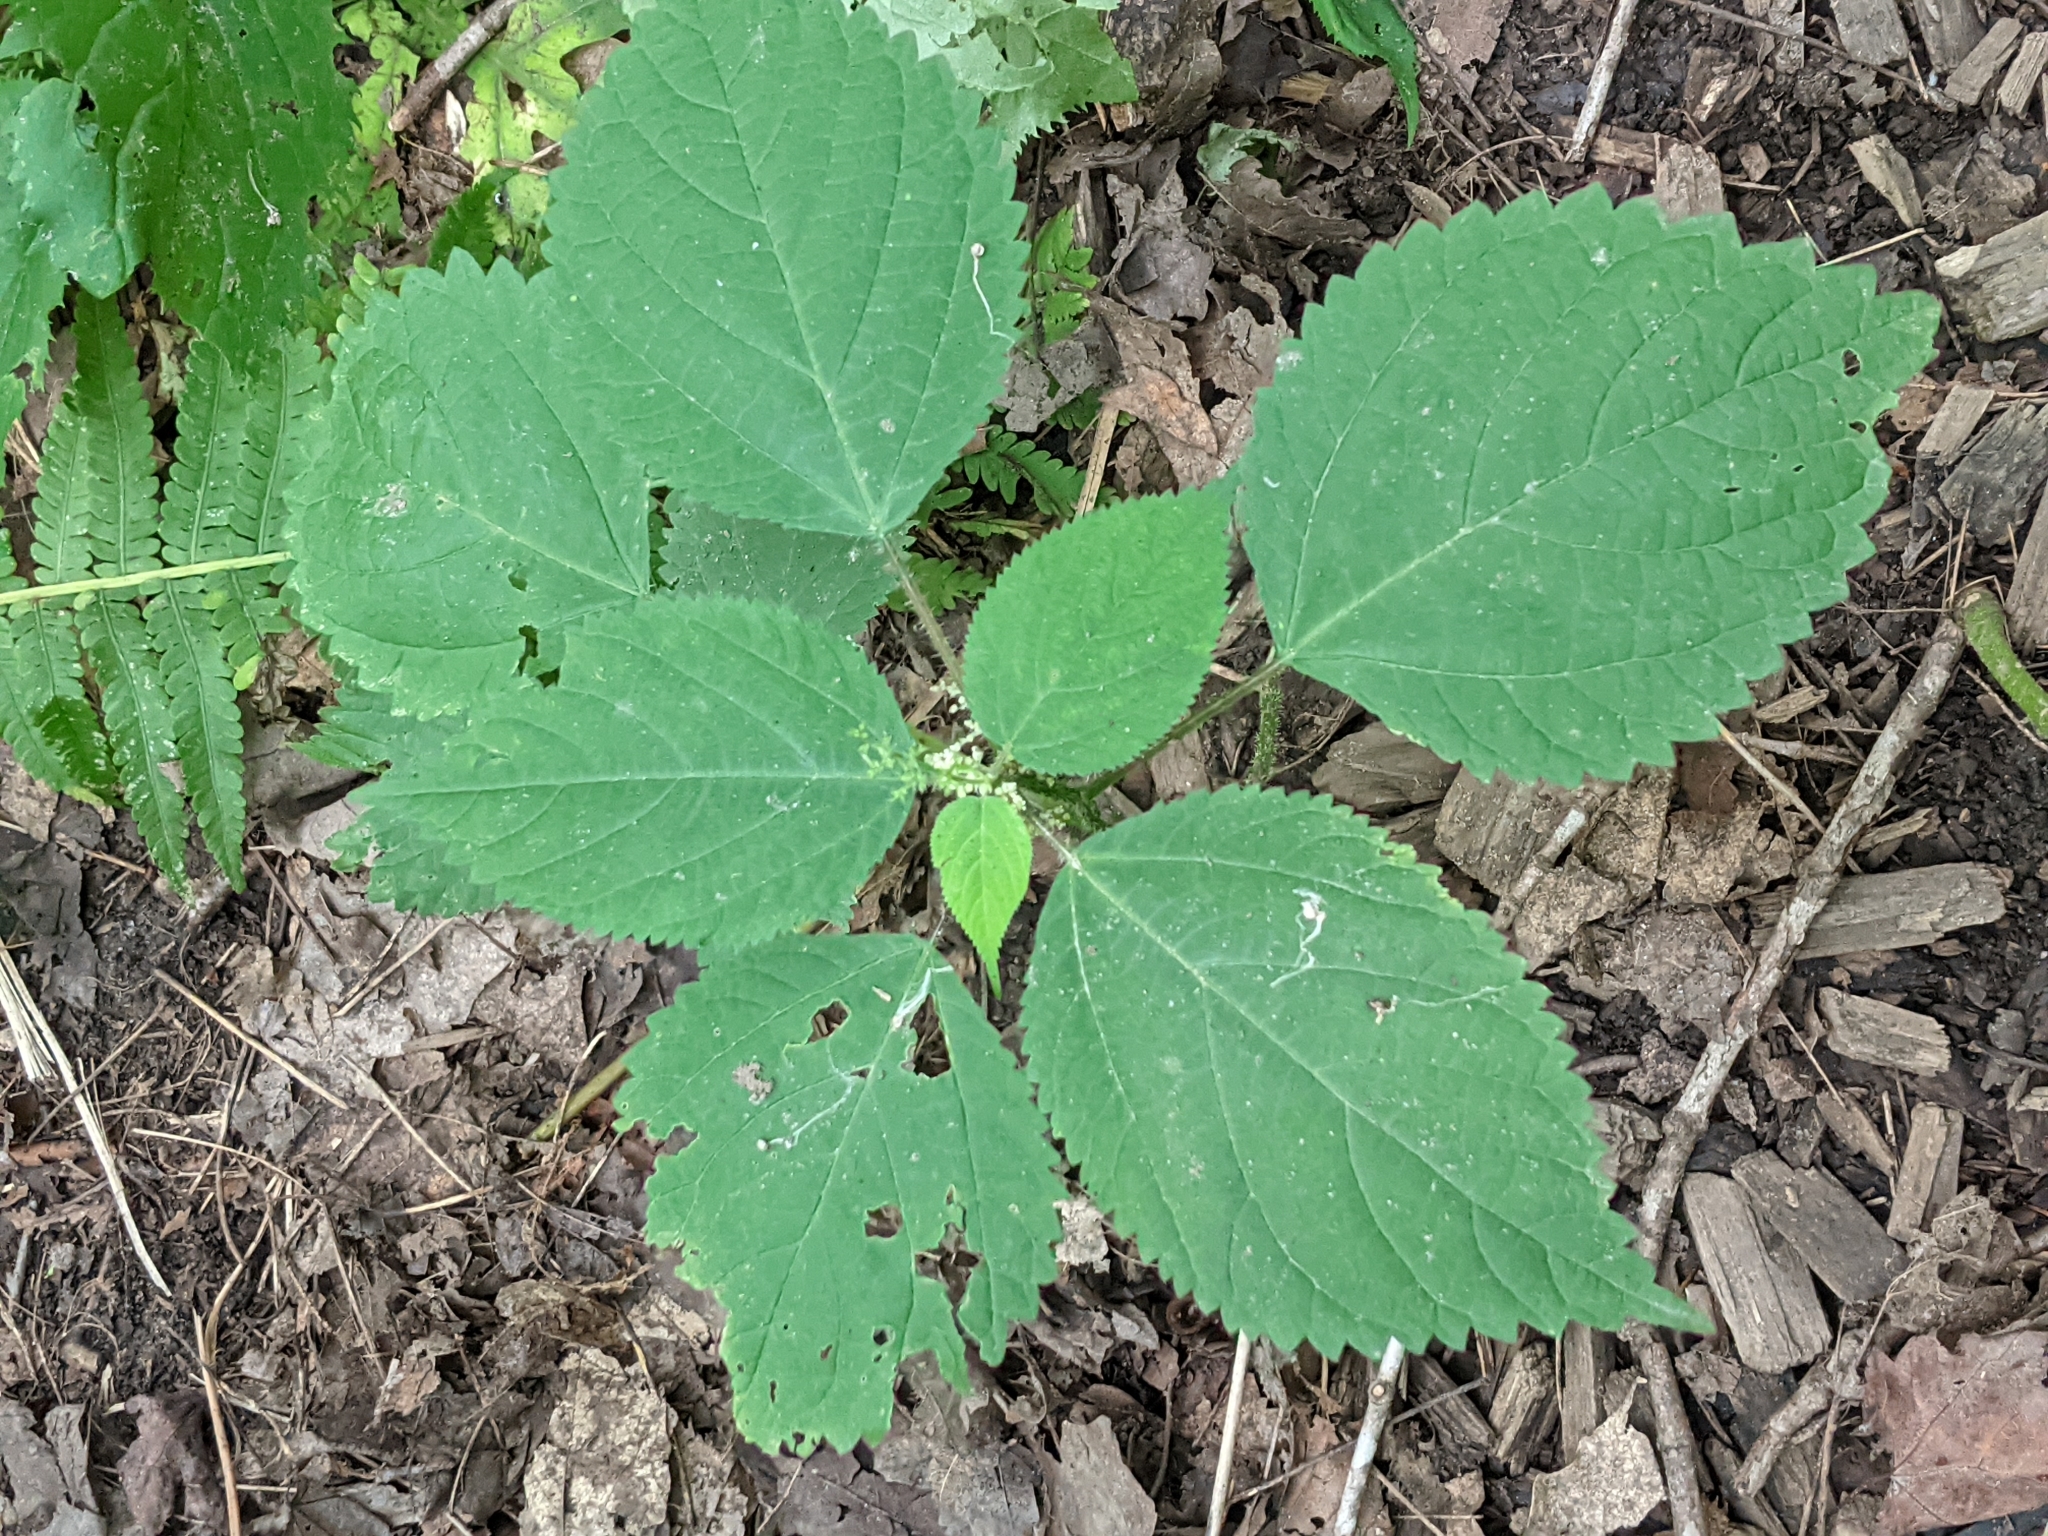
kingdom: Plantae
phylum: Tracheophyta
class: Magnoliopsida
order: Rosales
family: Urticaceae
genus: Laportea
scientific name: Laportea canadensis
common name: Canada nettle
